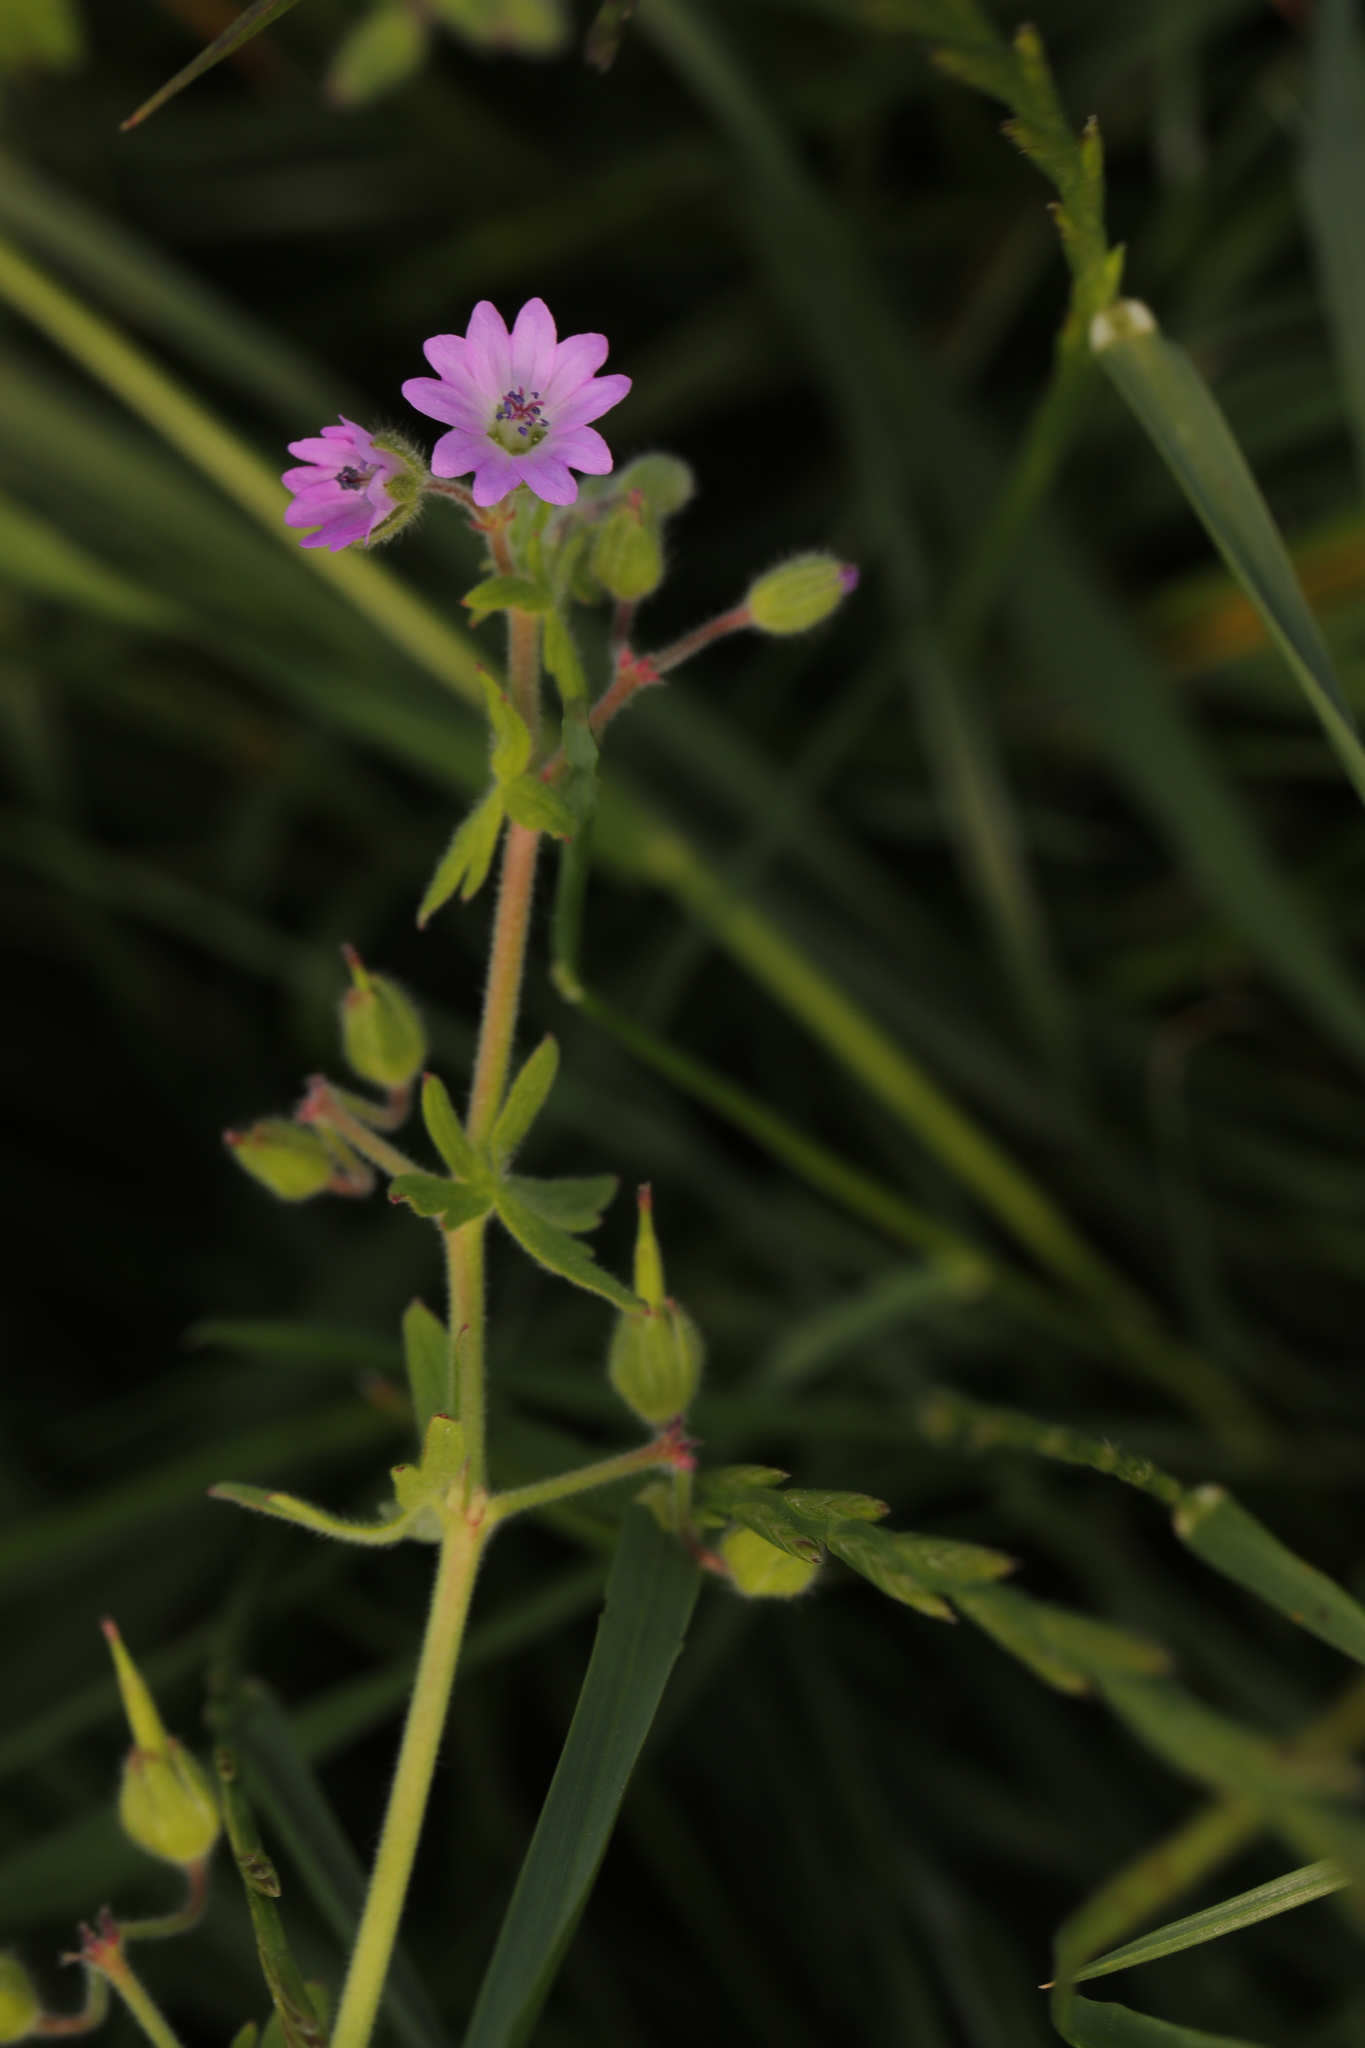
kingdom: Plantae
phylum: Tracheophyta
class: Magnoliopsida
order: Geraniales
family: Geraniaceae
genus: Geranium
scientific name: Geranium molle
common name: Dove's-foot crane's-bill
